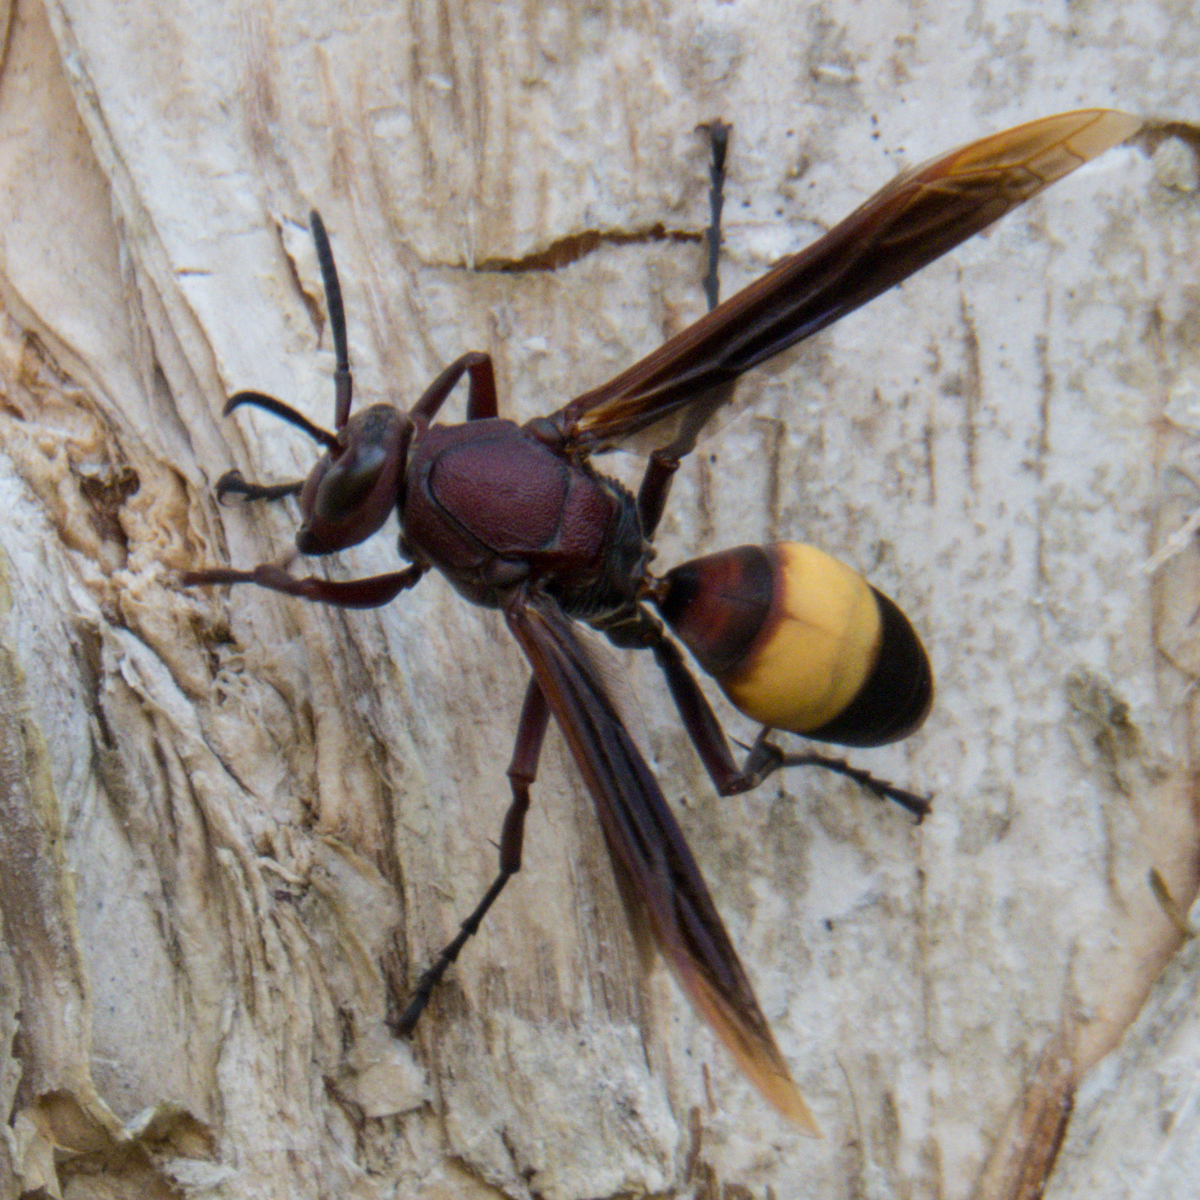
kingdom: Animalia
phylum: Arthropoda
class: Insecta
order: Hymenoptera
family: Eumenidae
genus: Polistes
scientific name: Polistes sagittarius
